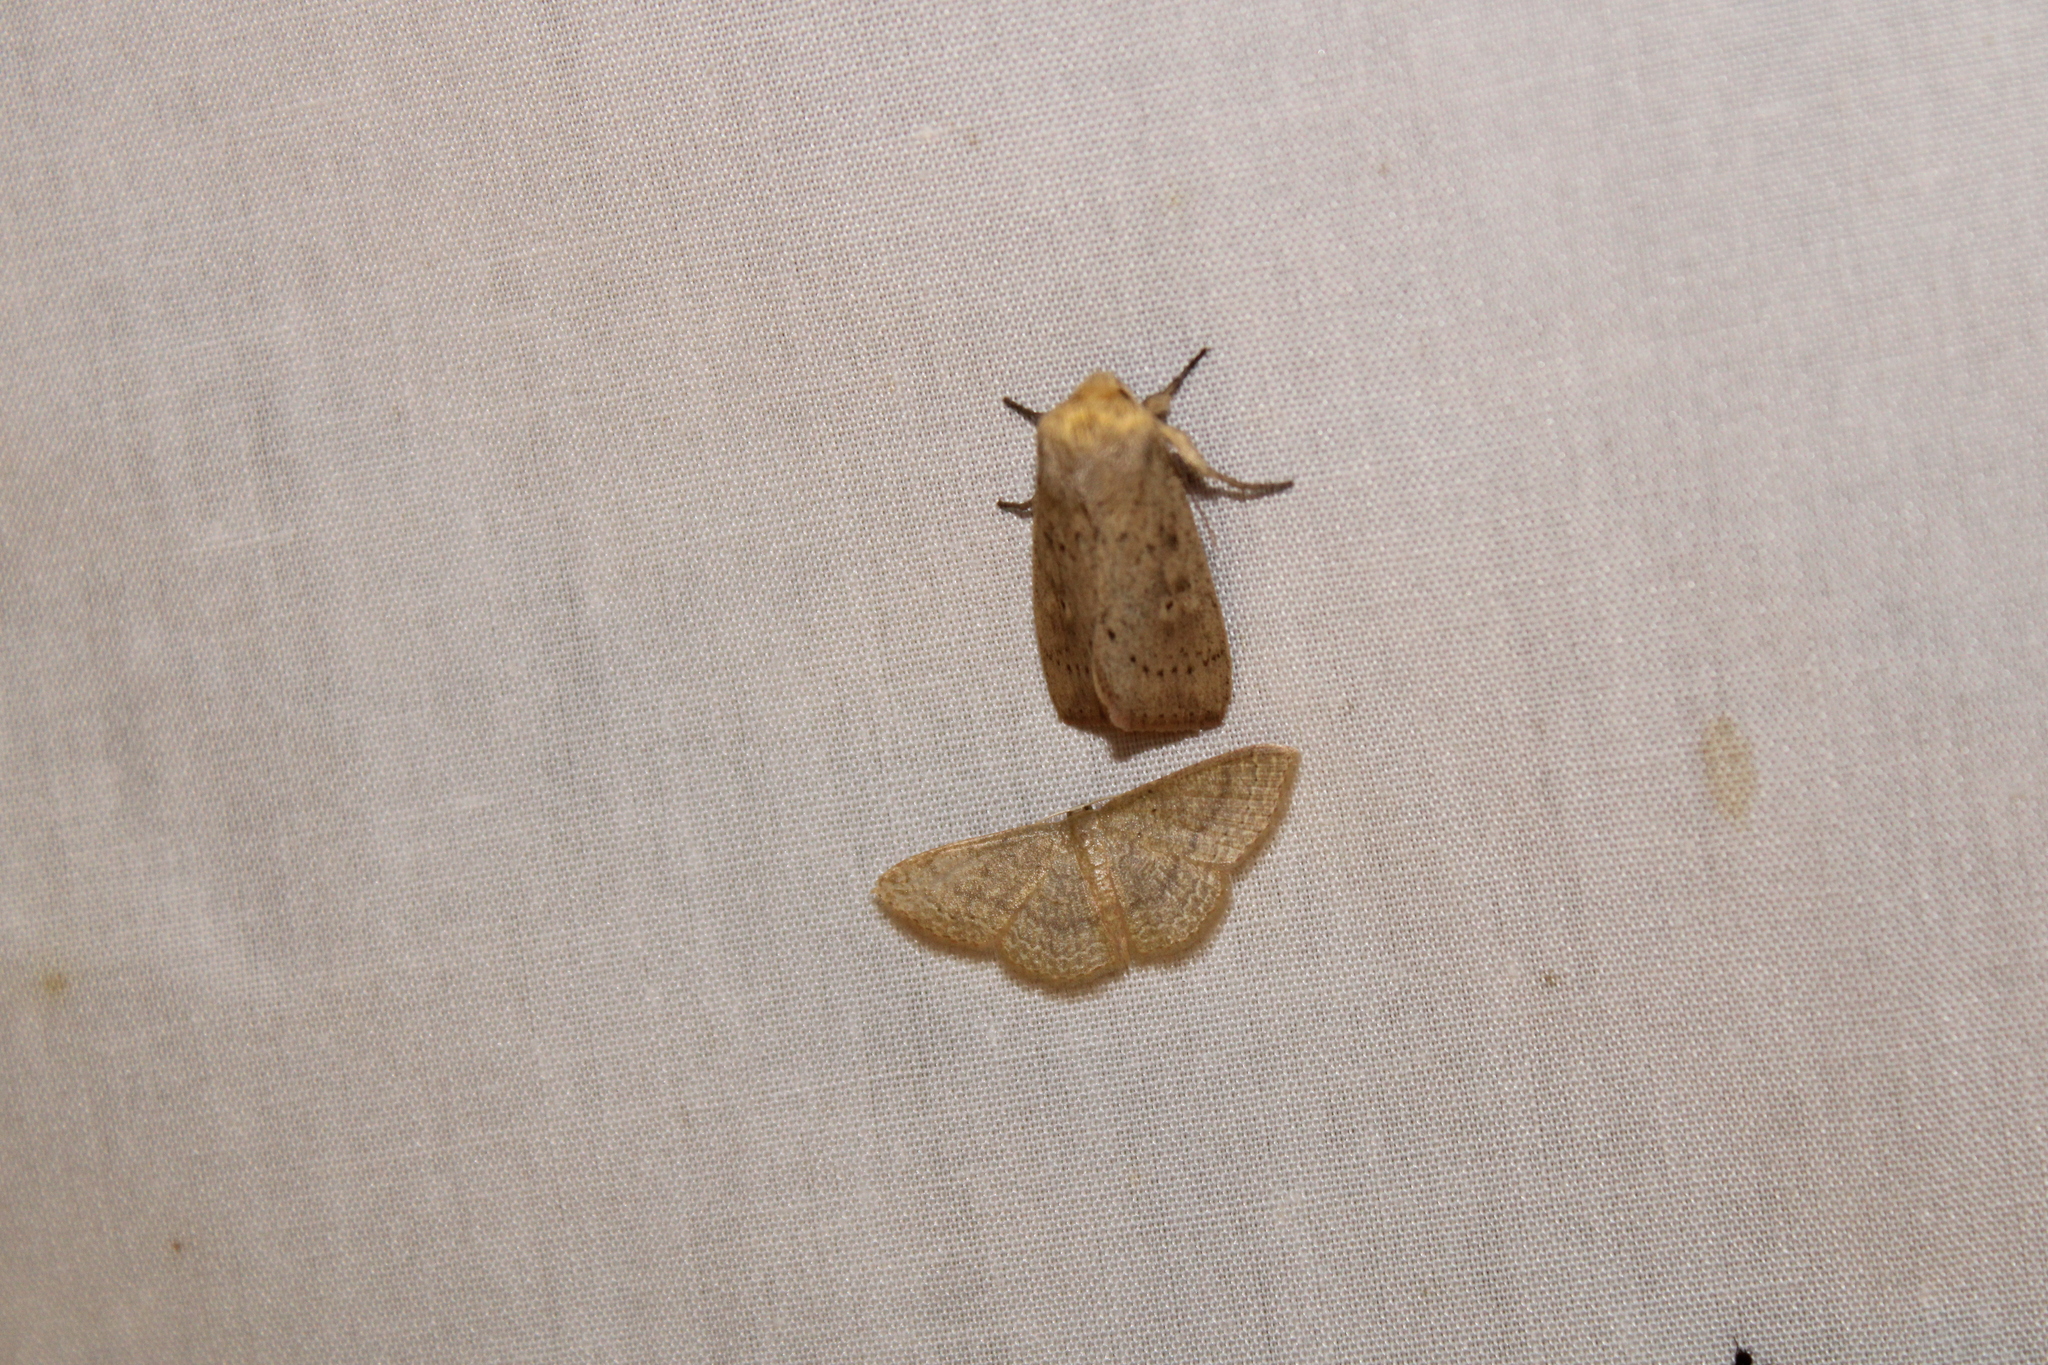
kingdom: Animalia
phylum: Arthropoda
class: Insecta
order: Lepidoptera
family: Noctuidae
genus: Globia
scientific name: Globia oblonga
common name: Oblong sedge borer moth
